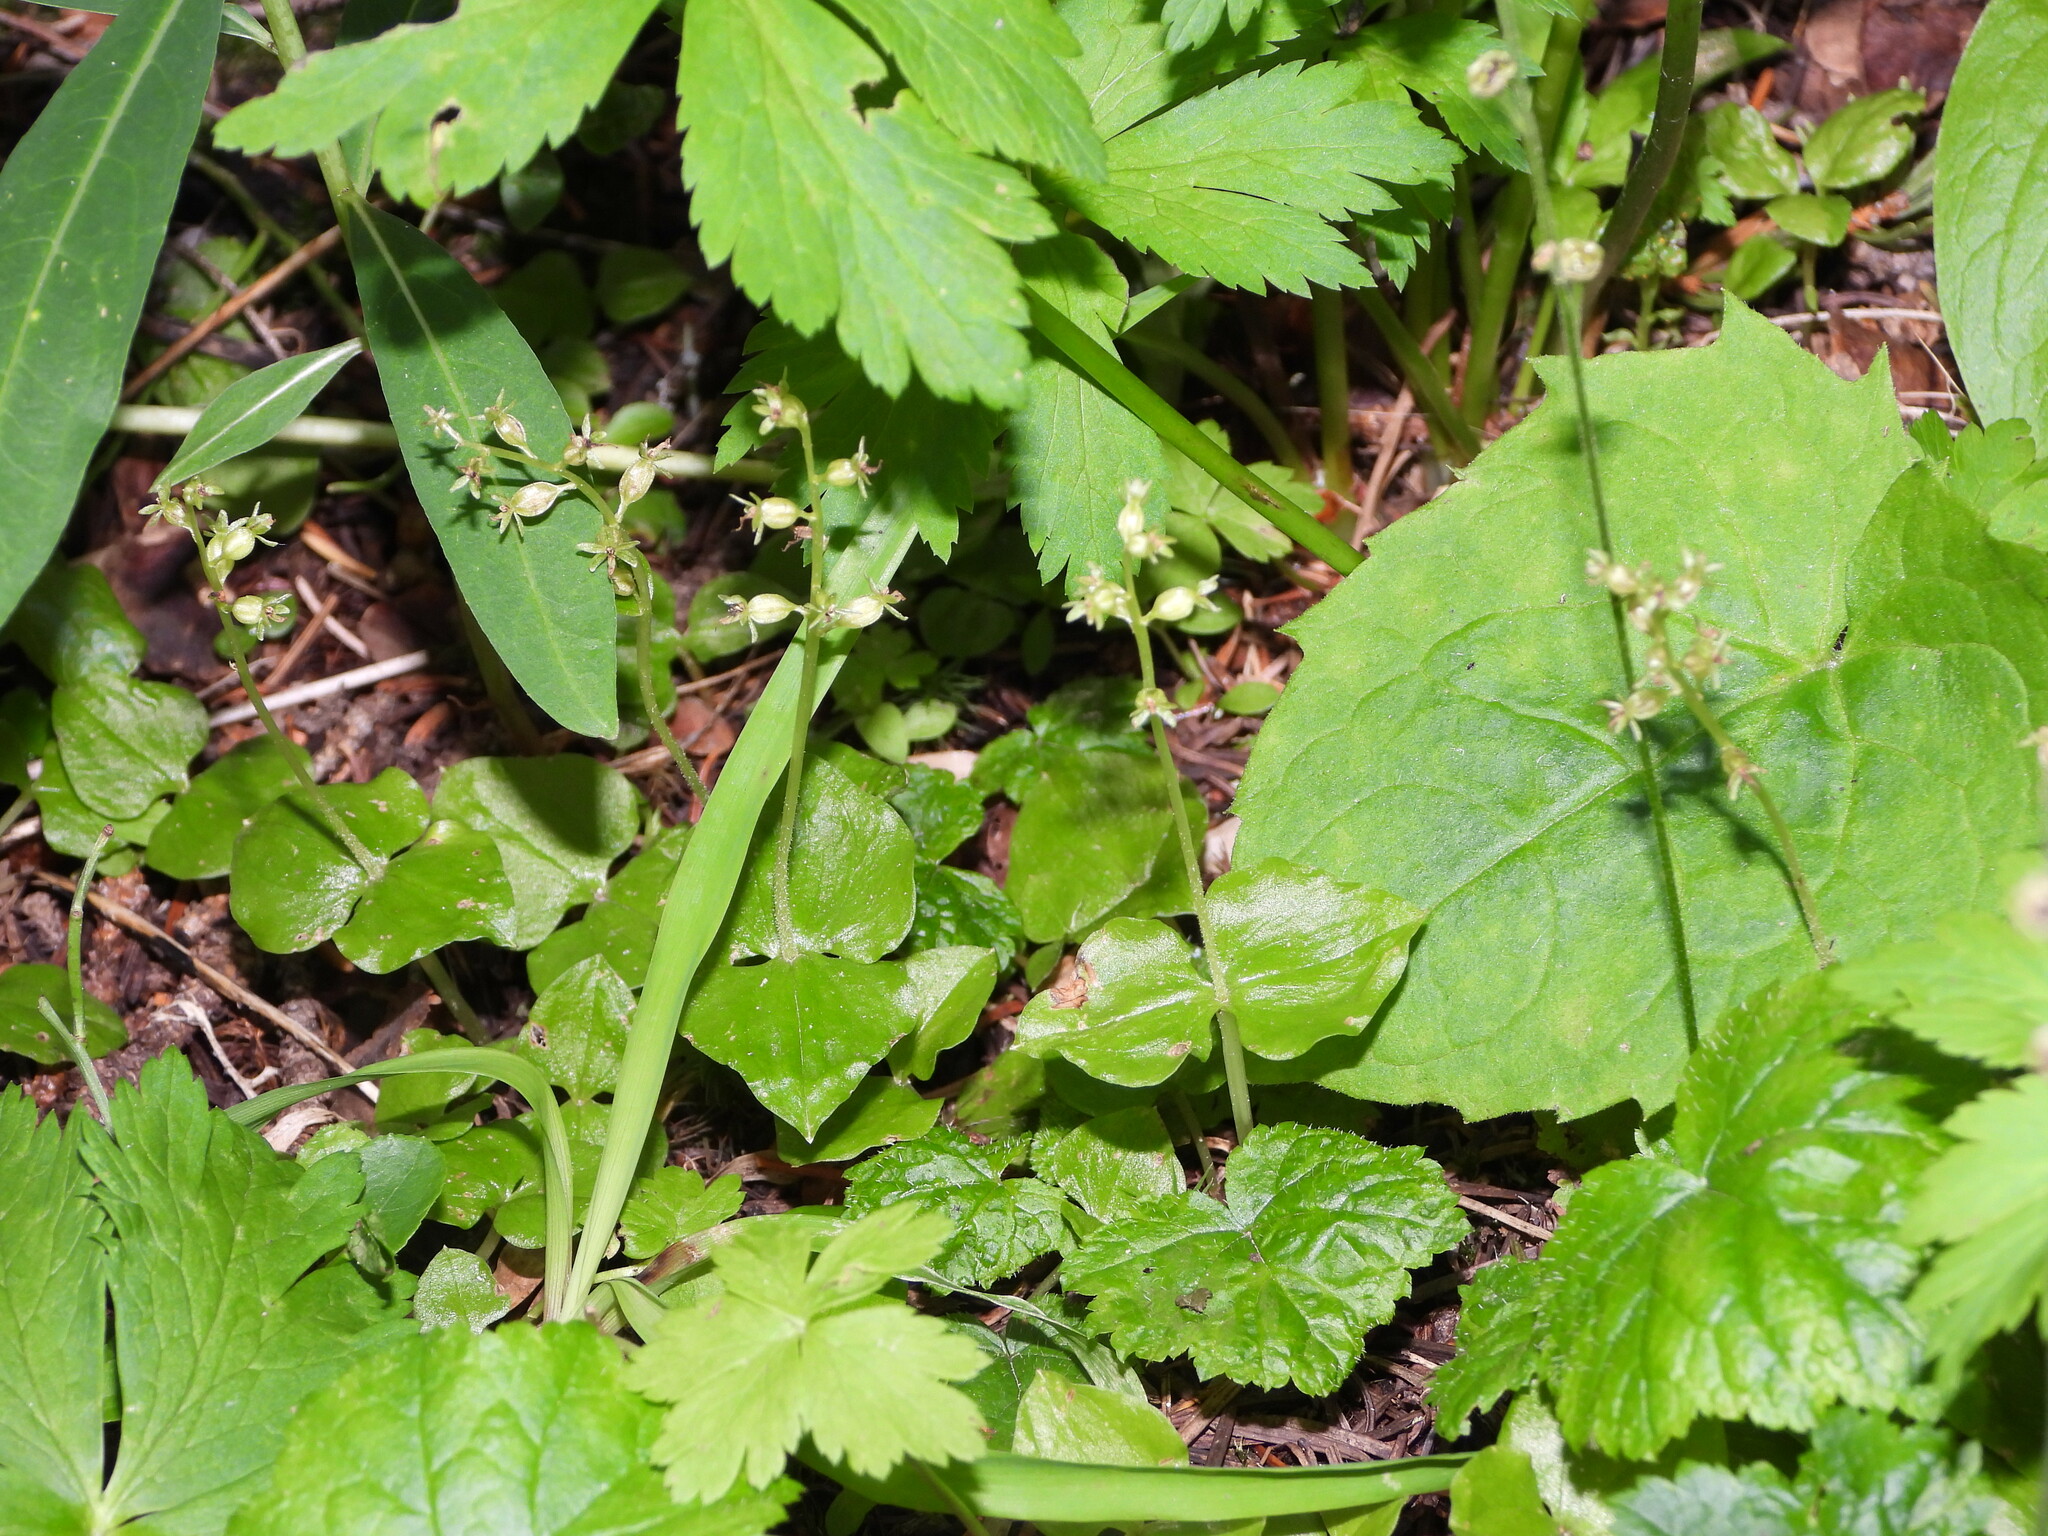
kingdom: Plantae
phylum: Tracheophyta
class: Liliopsida
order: Asparagales
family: Orchidaceae
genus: Neottia
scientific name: Neottia cordata
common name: Lesser twayblade
